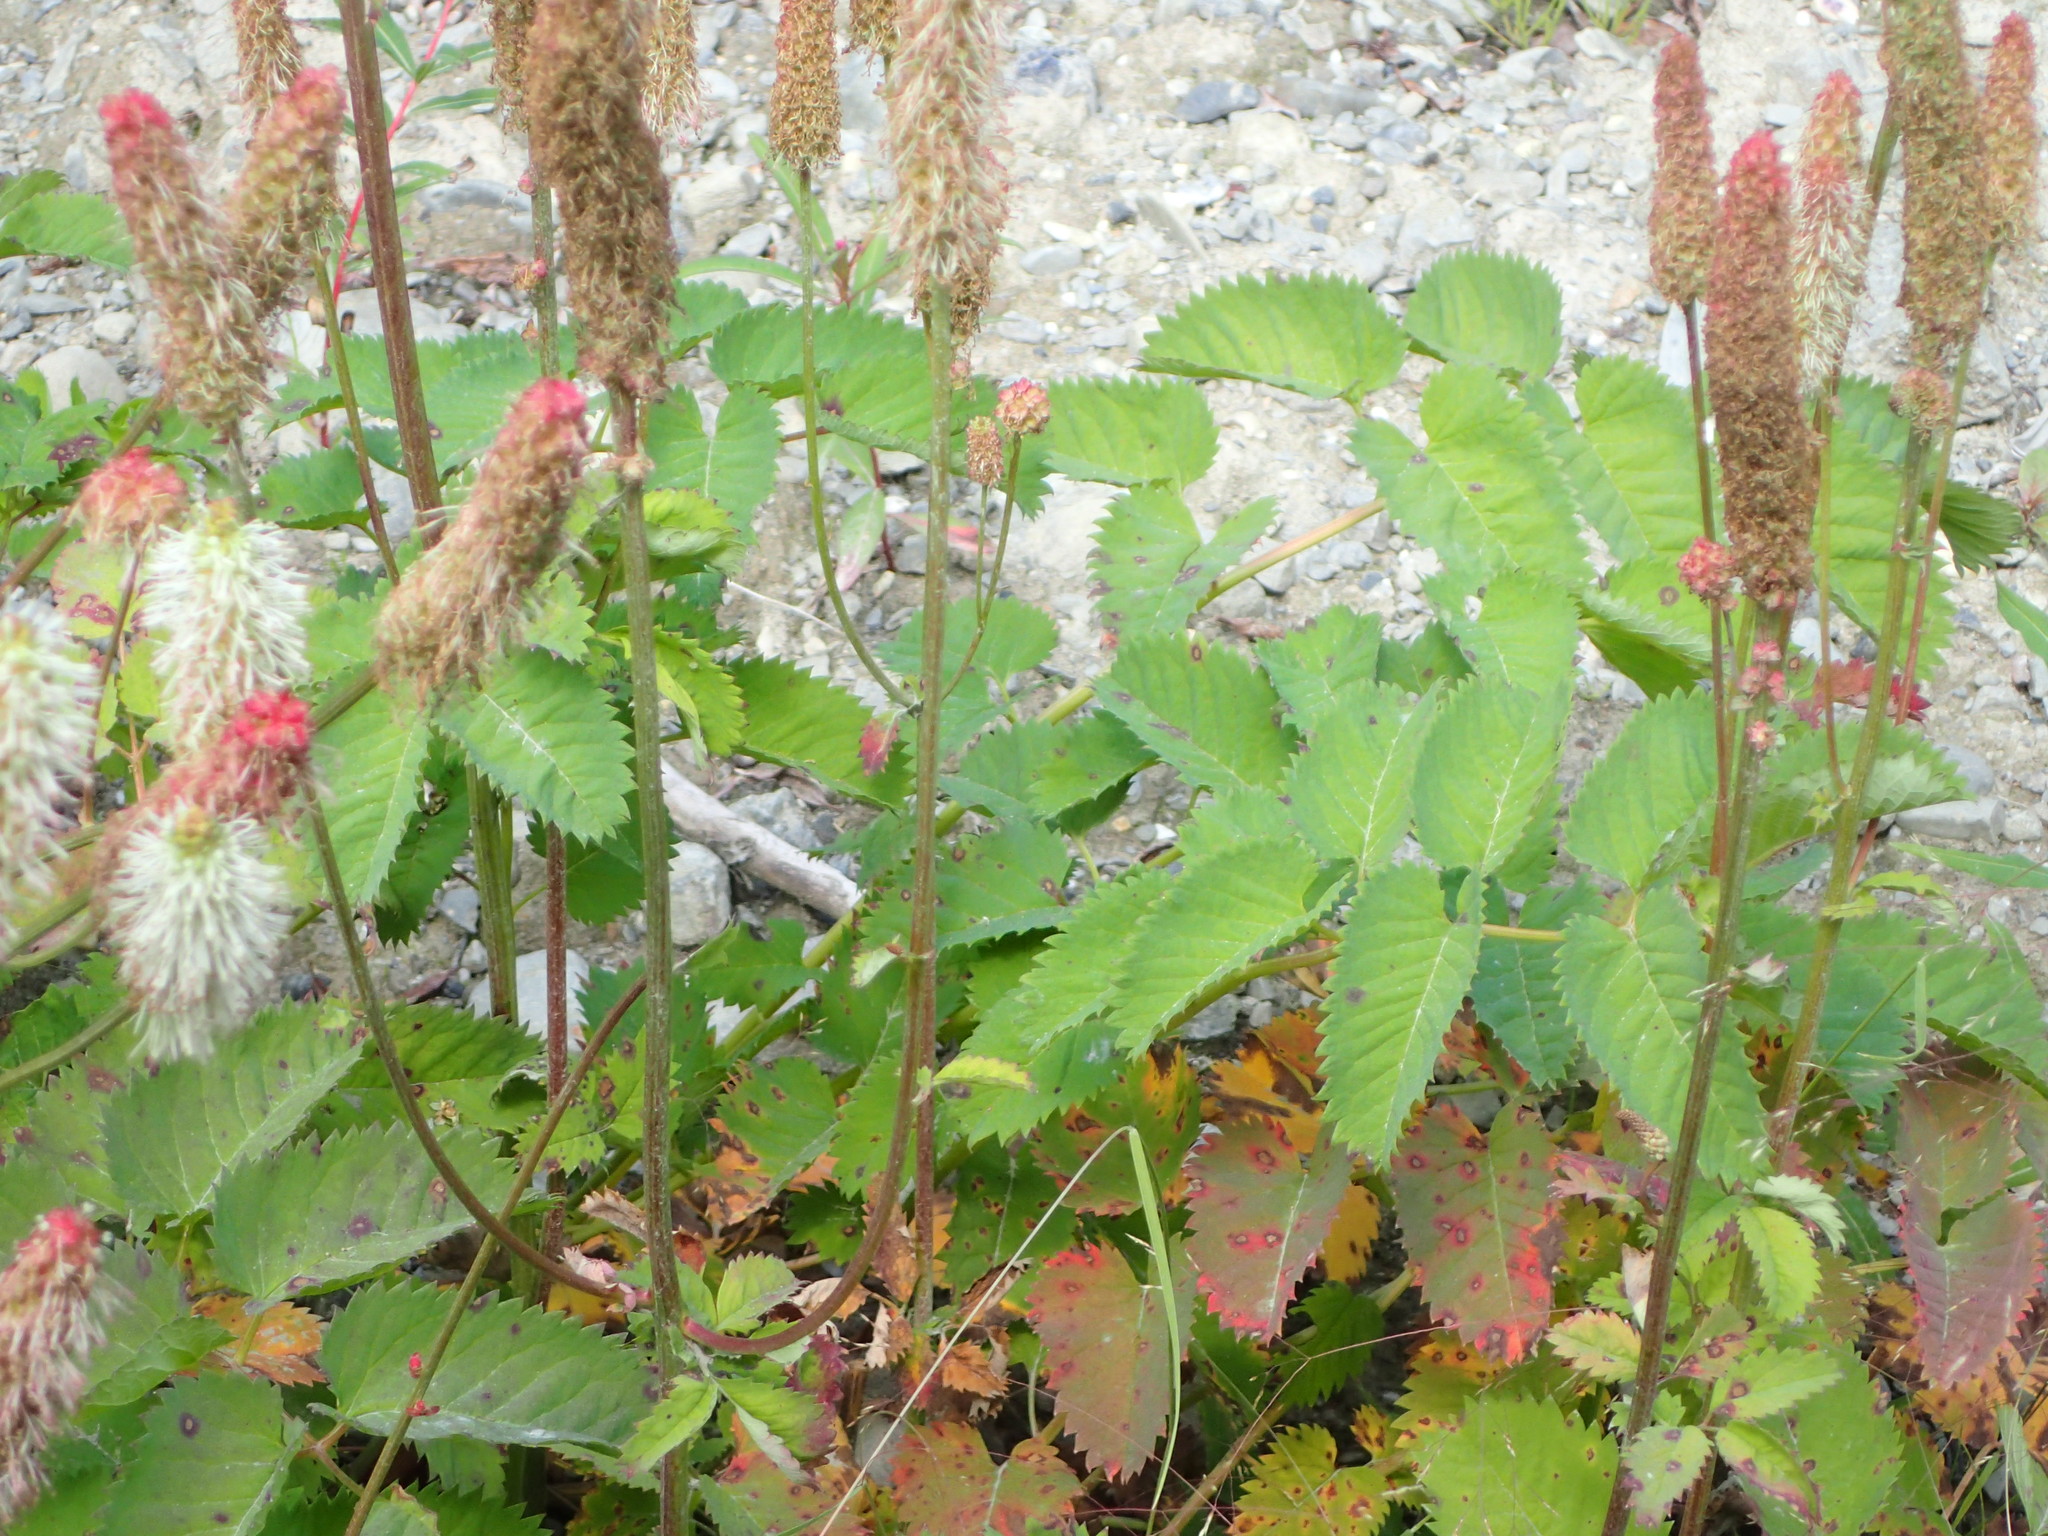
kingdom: Plantae
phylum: Tracheophyta
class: Magnoliopsida
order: Rosales
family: Rosaceae
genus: Sanguisorba
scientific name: Sanguisorba stipulata
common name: Sitka burnet
